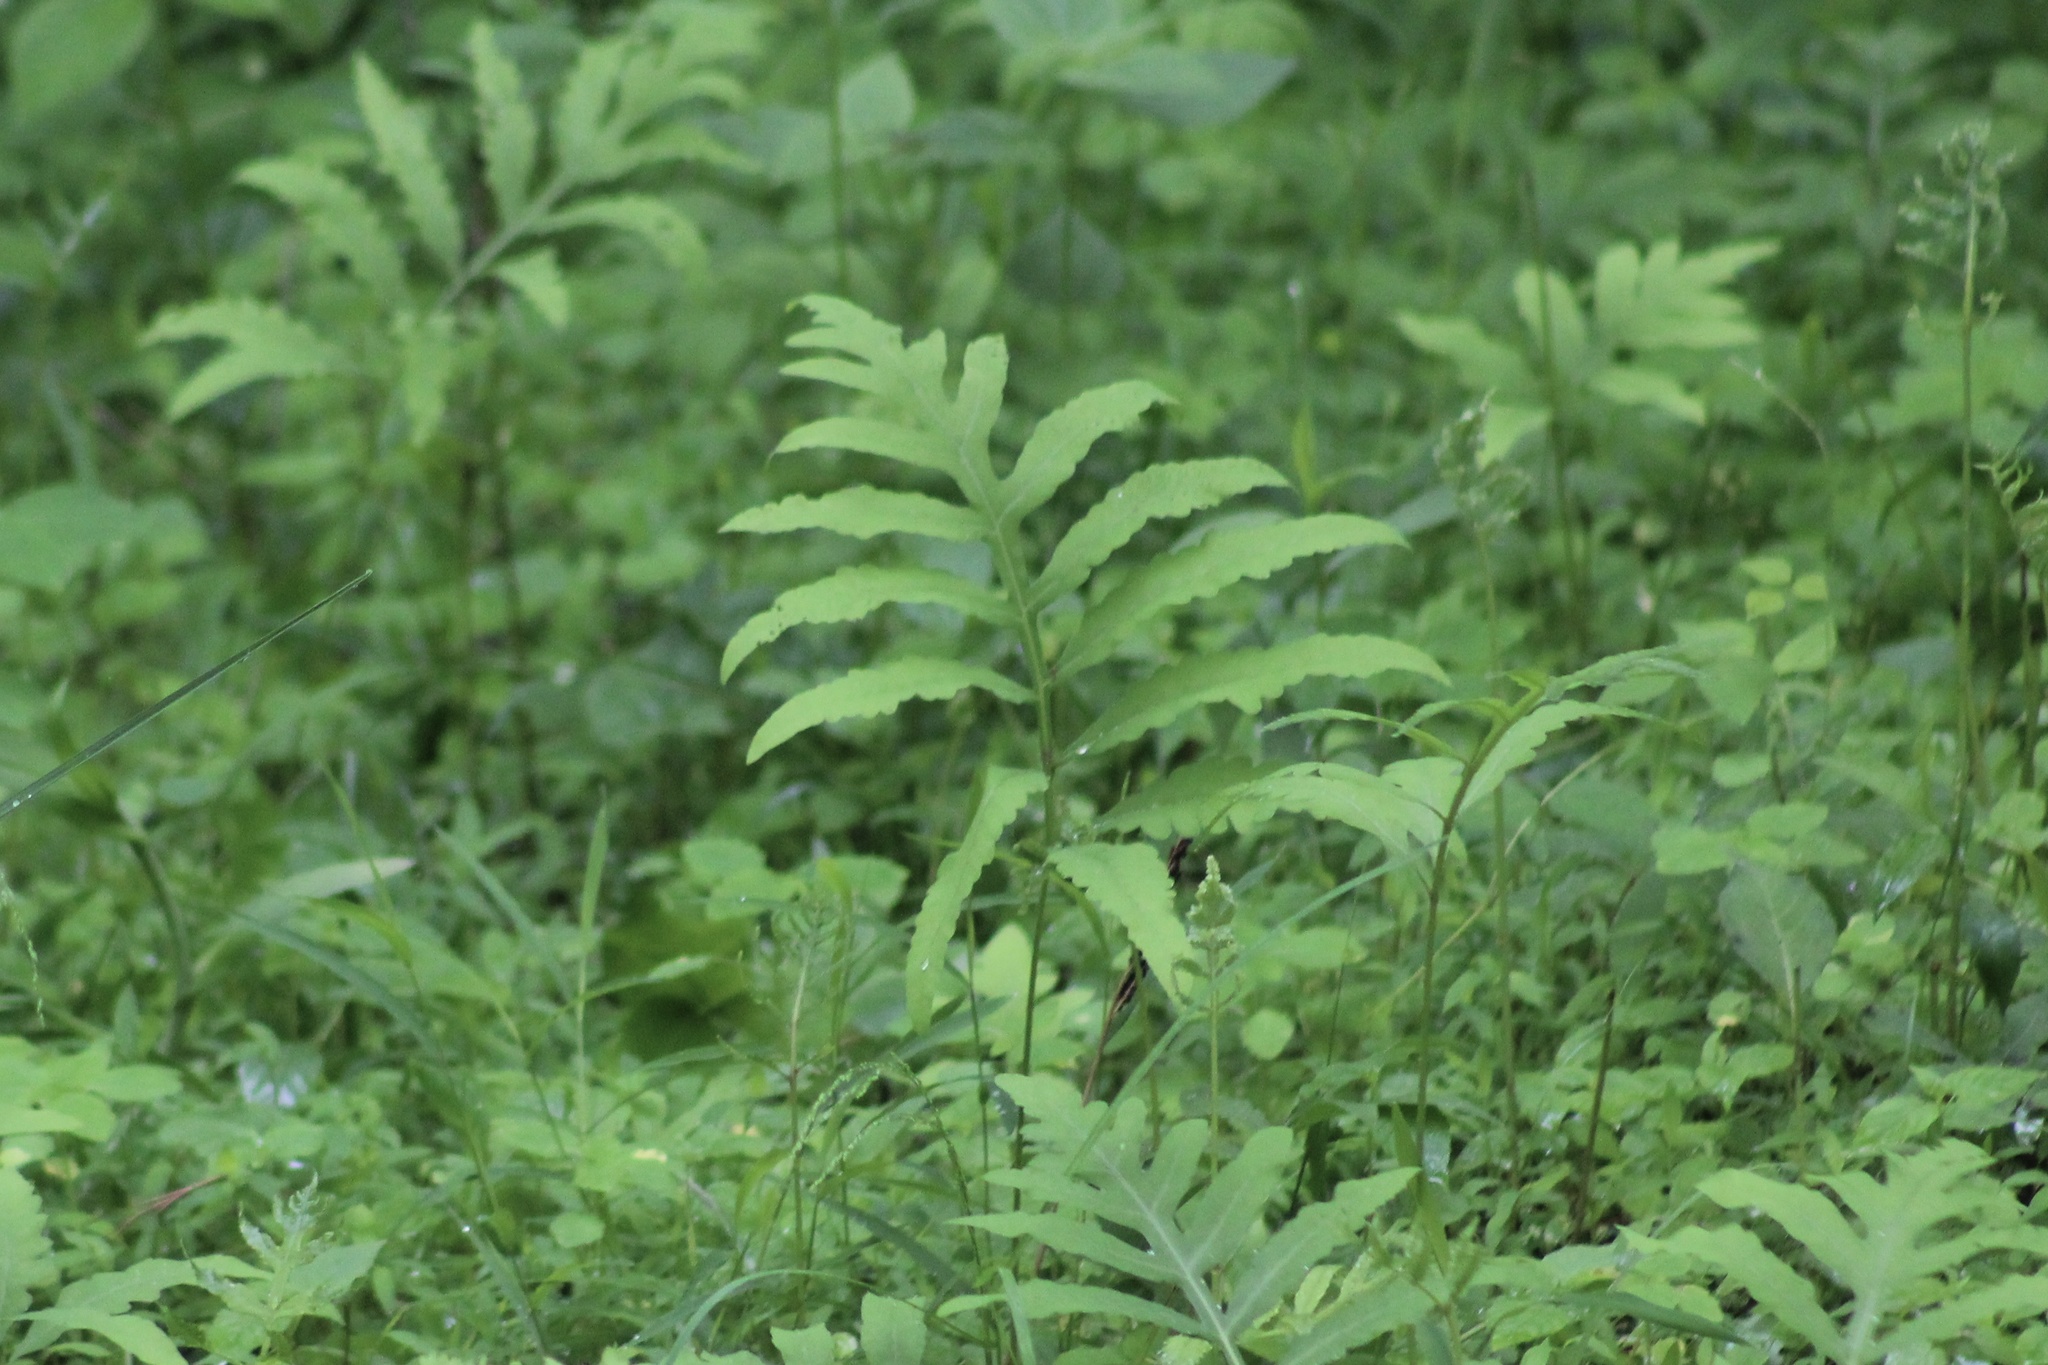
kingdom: Plantae
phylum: Tracheophyta
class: Polypodiopsida
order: Polypodiales
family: Onocleaceae
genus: Onoclea
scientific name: Onoclea sensibilis
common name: Sensitive fern
